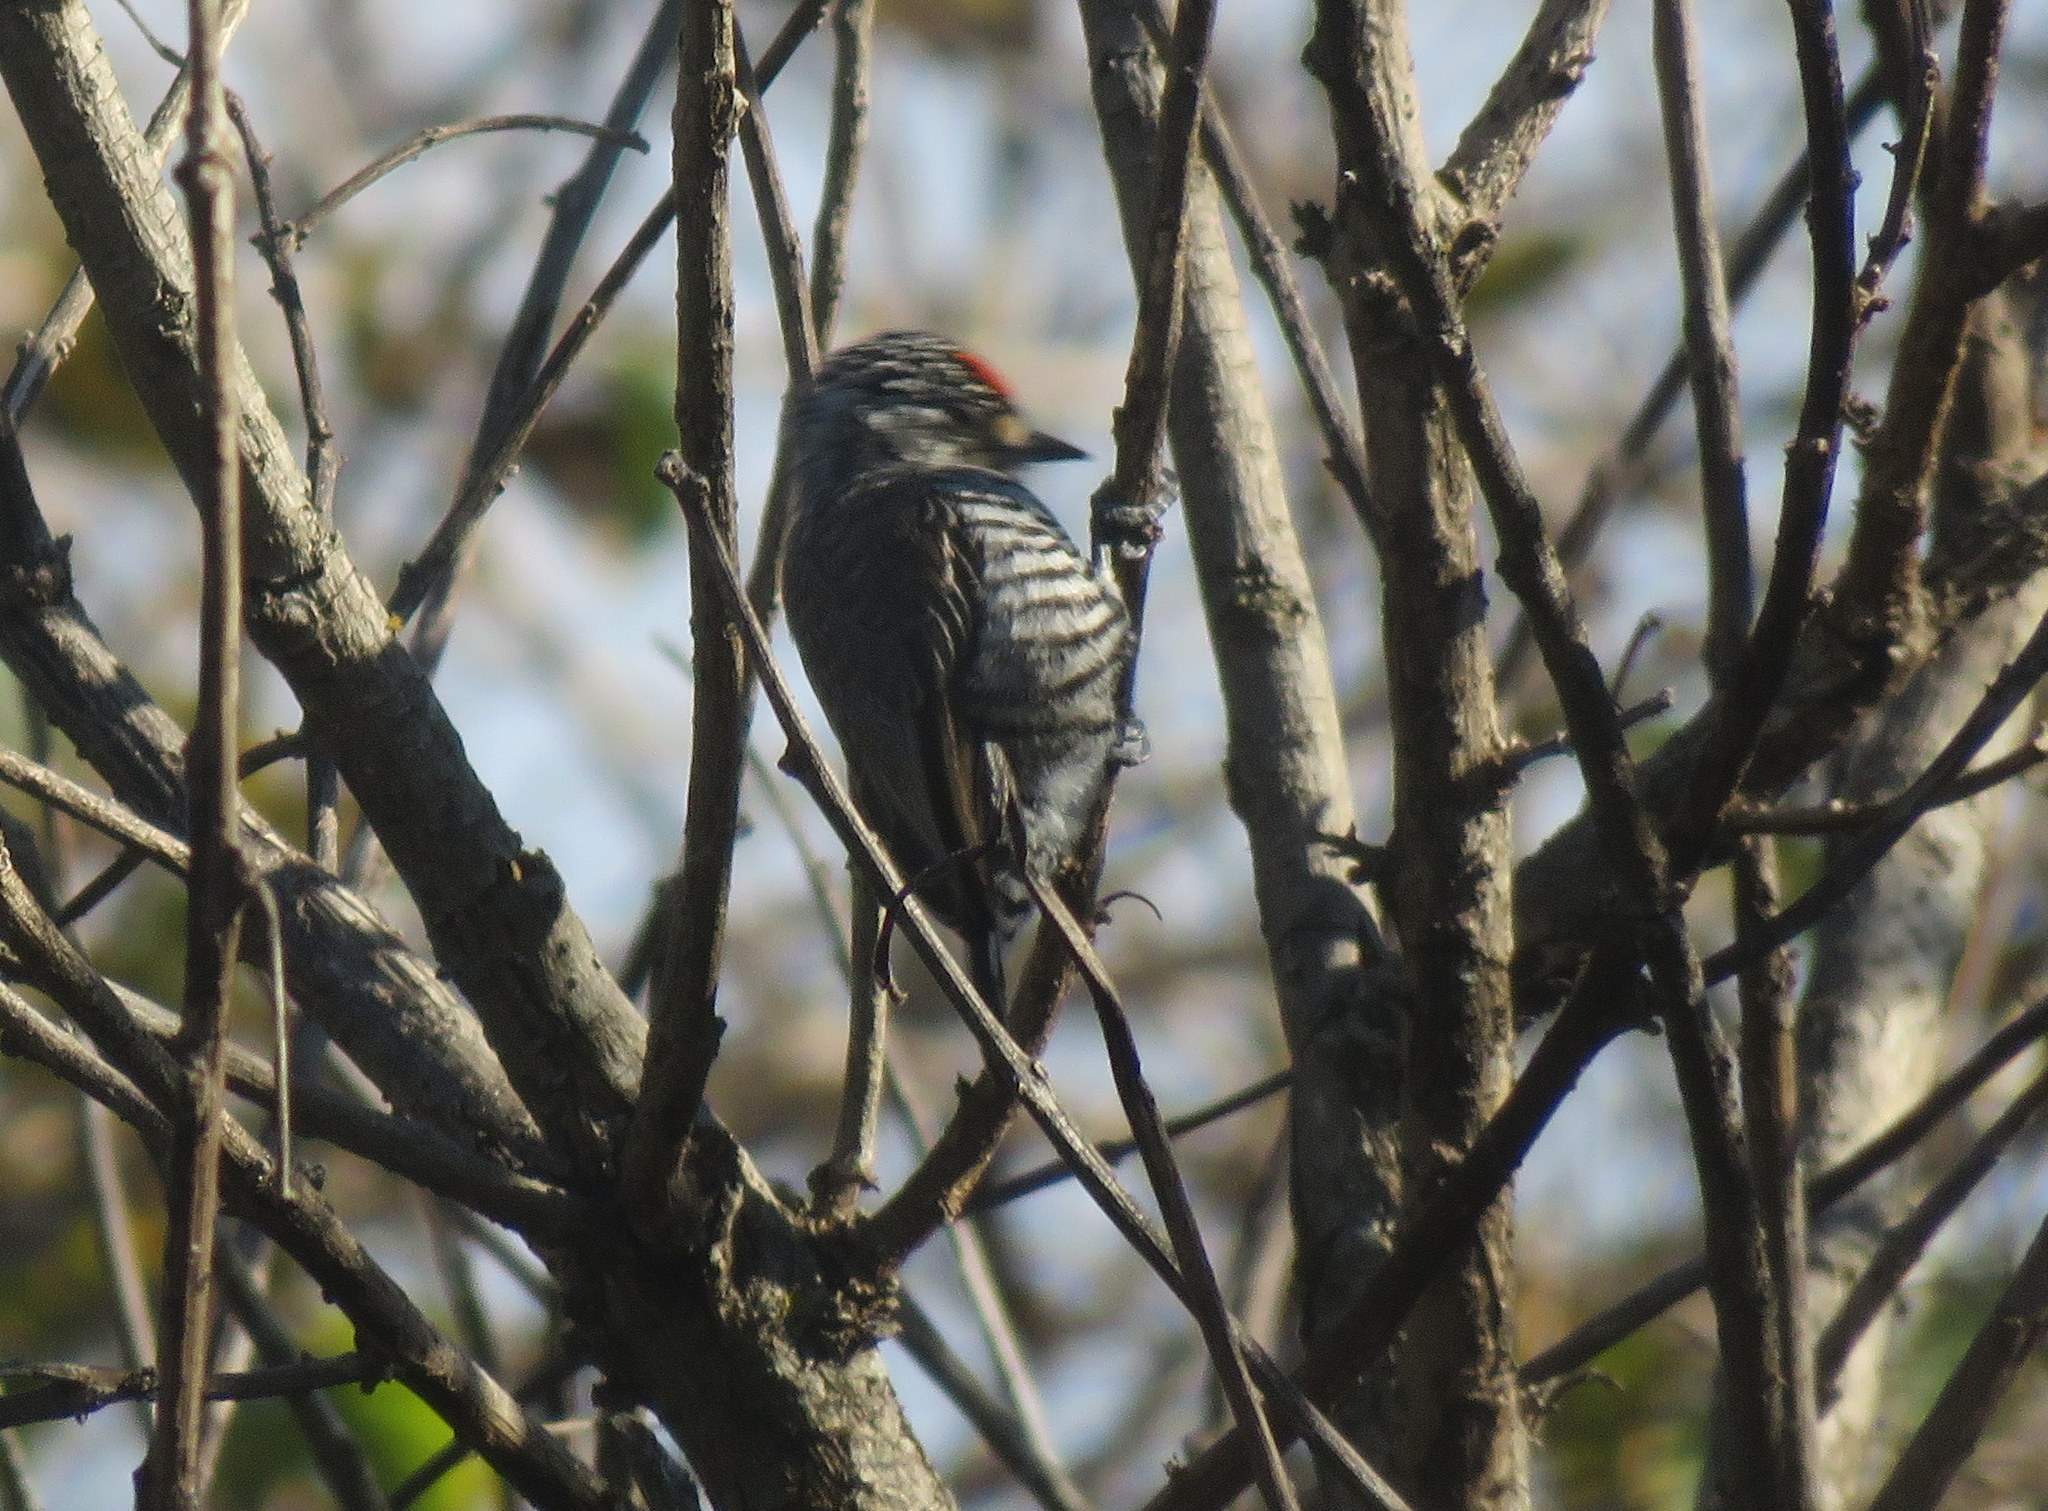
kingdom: Animalia
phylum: Chordata
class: Aves
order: Piciformes
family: Picidae
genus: Picumnus
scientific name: Picumnus cirratus
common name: White-barred piculet
